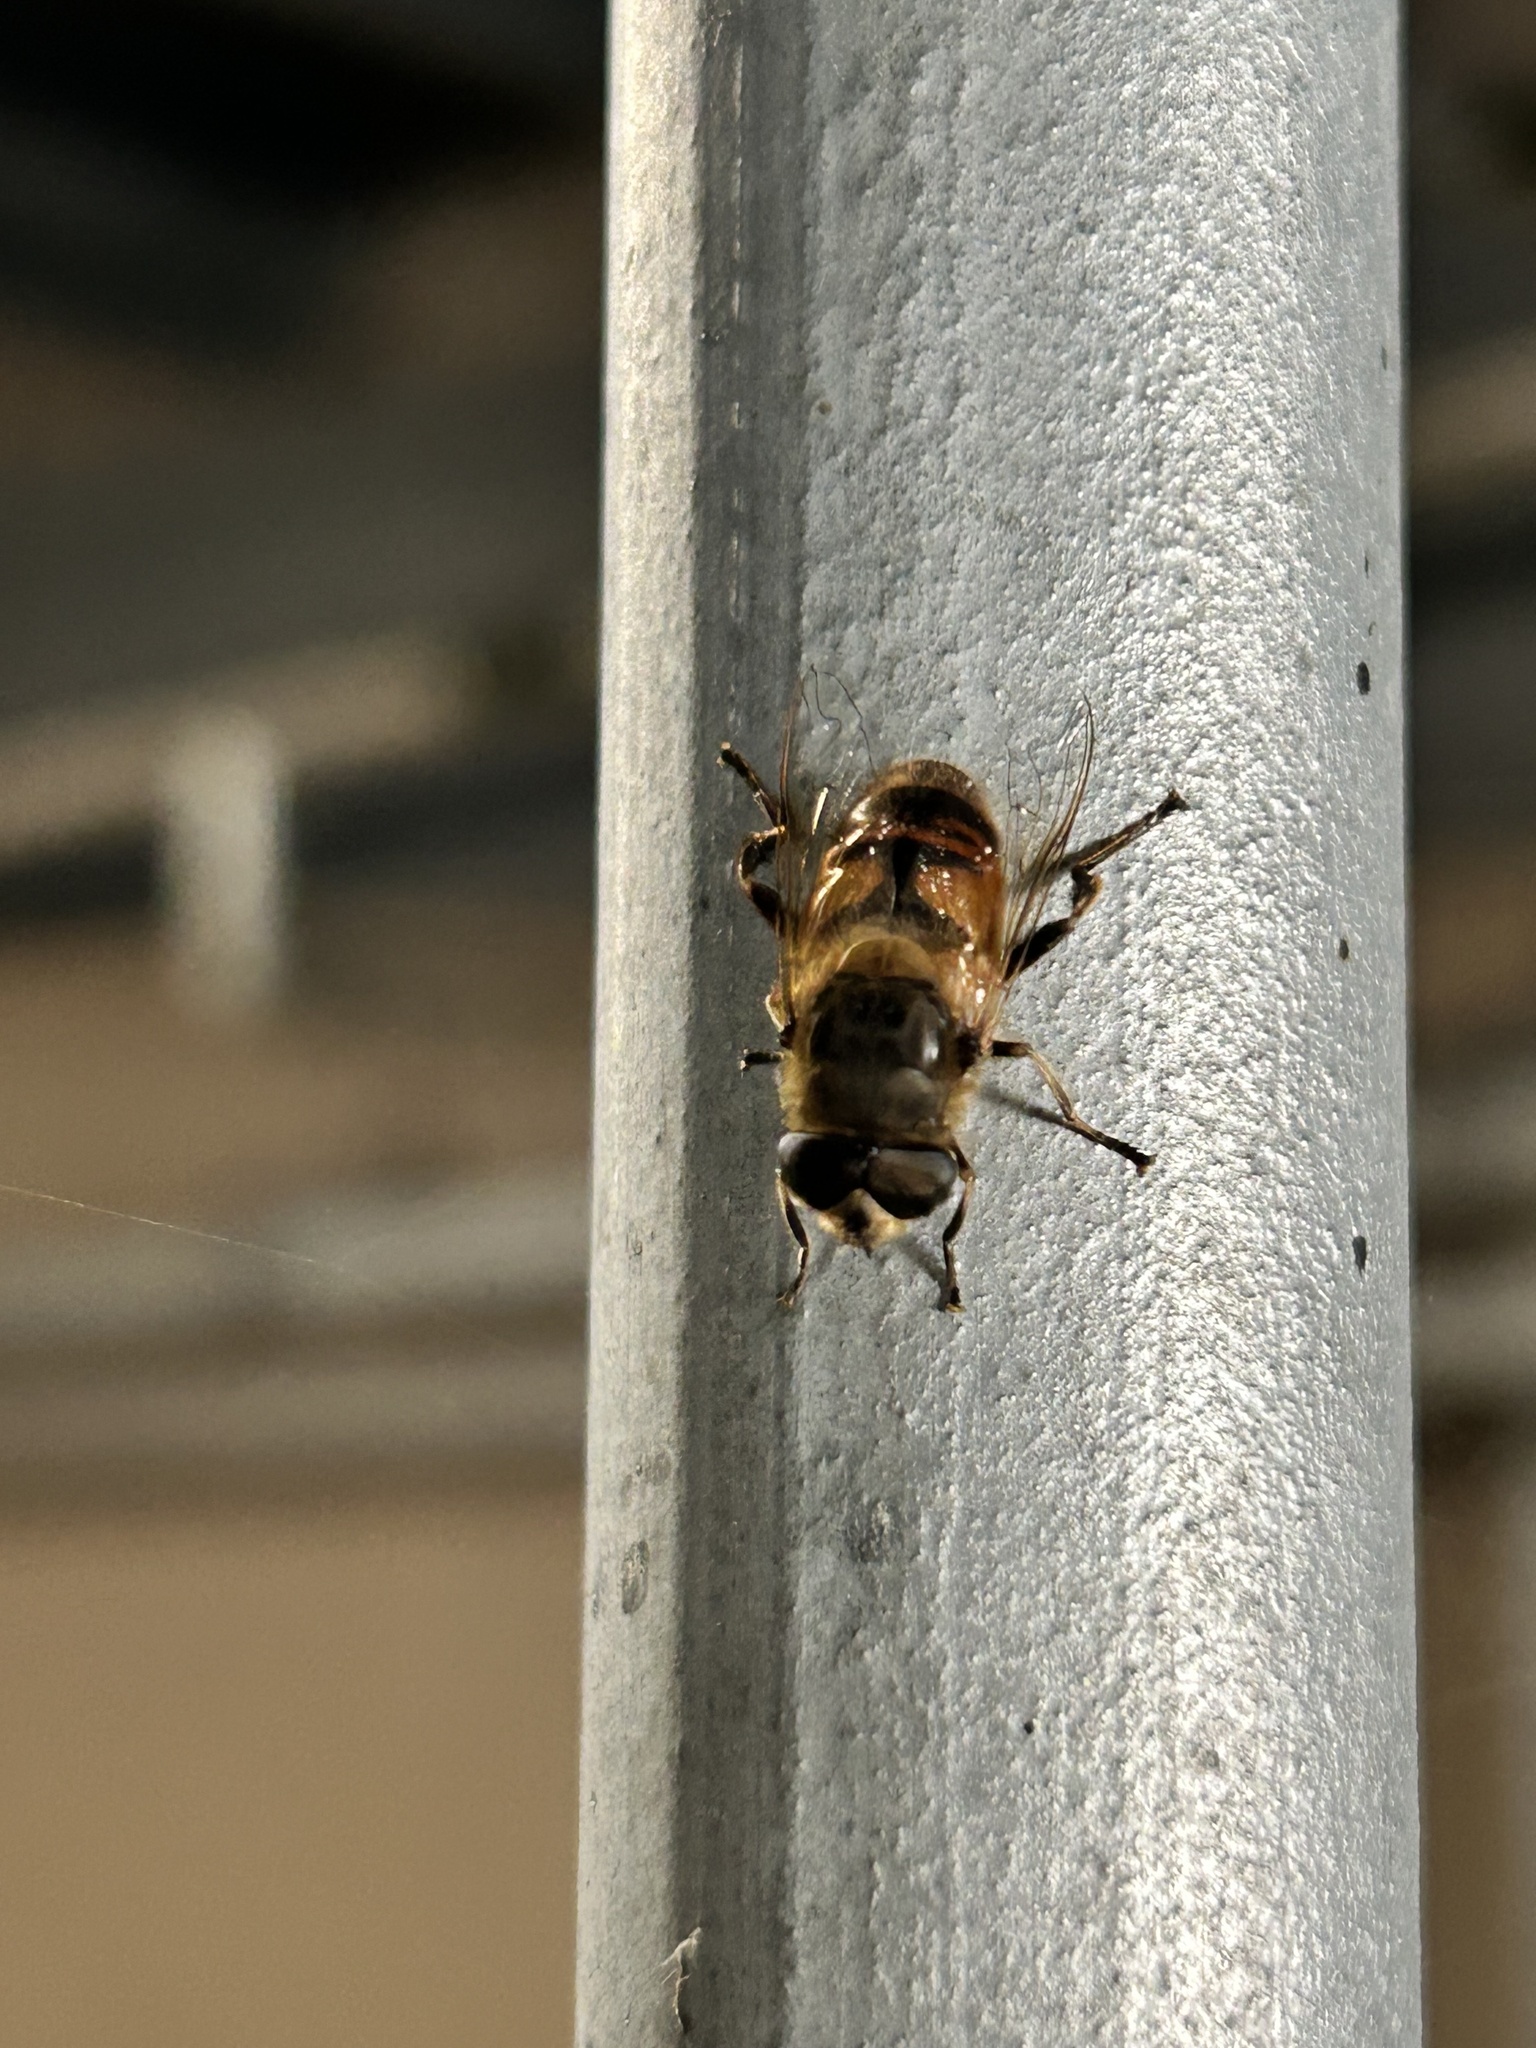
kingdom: Animalia
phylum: Arthropoda
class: Insecta
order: Diptera
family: Syrphidae
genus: Eristalis
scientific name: Eristalis tenax
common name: Drone fly
